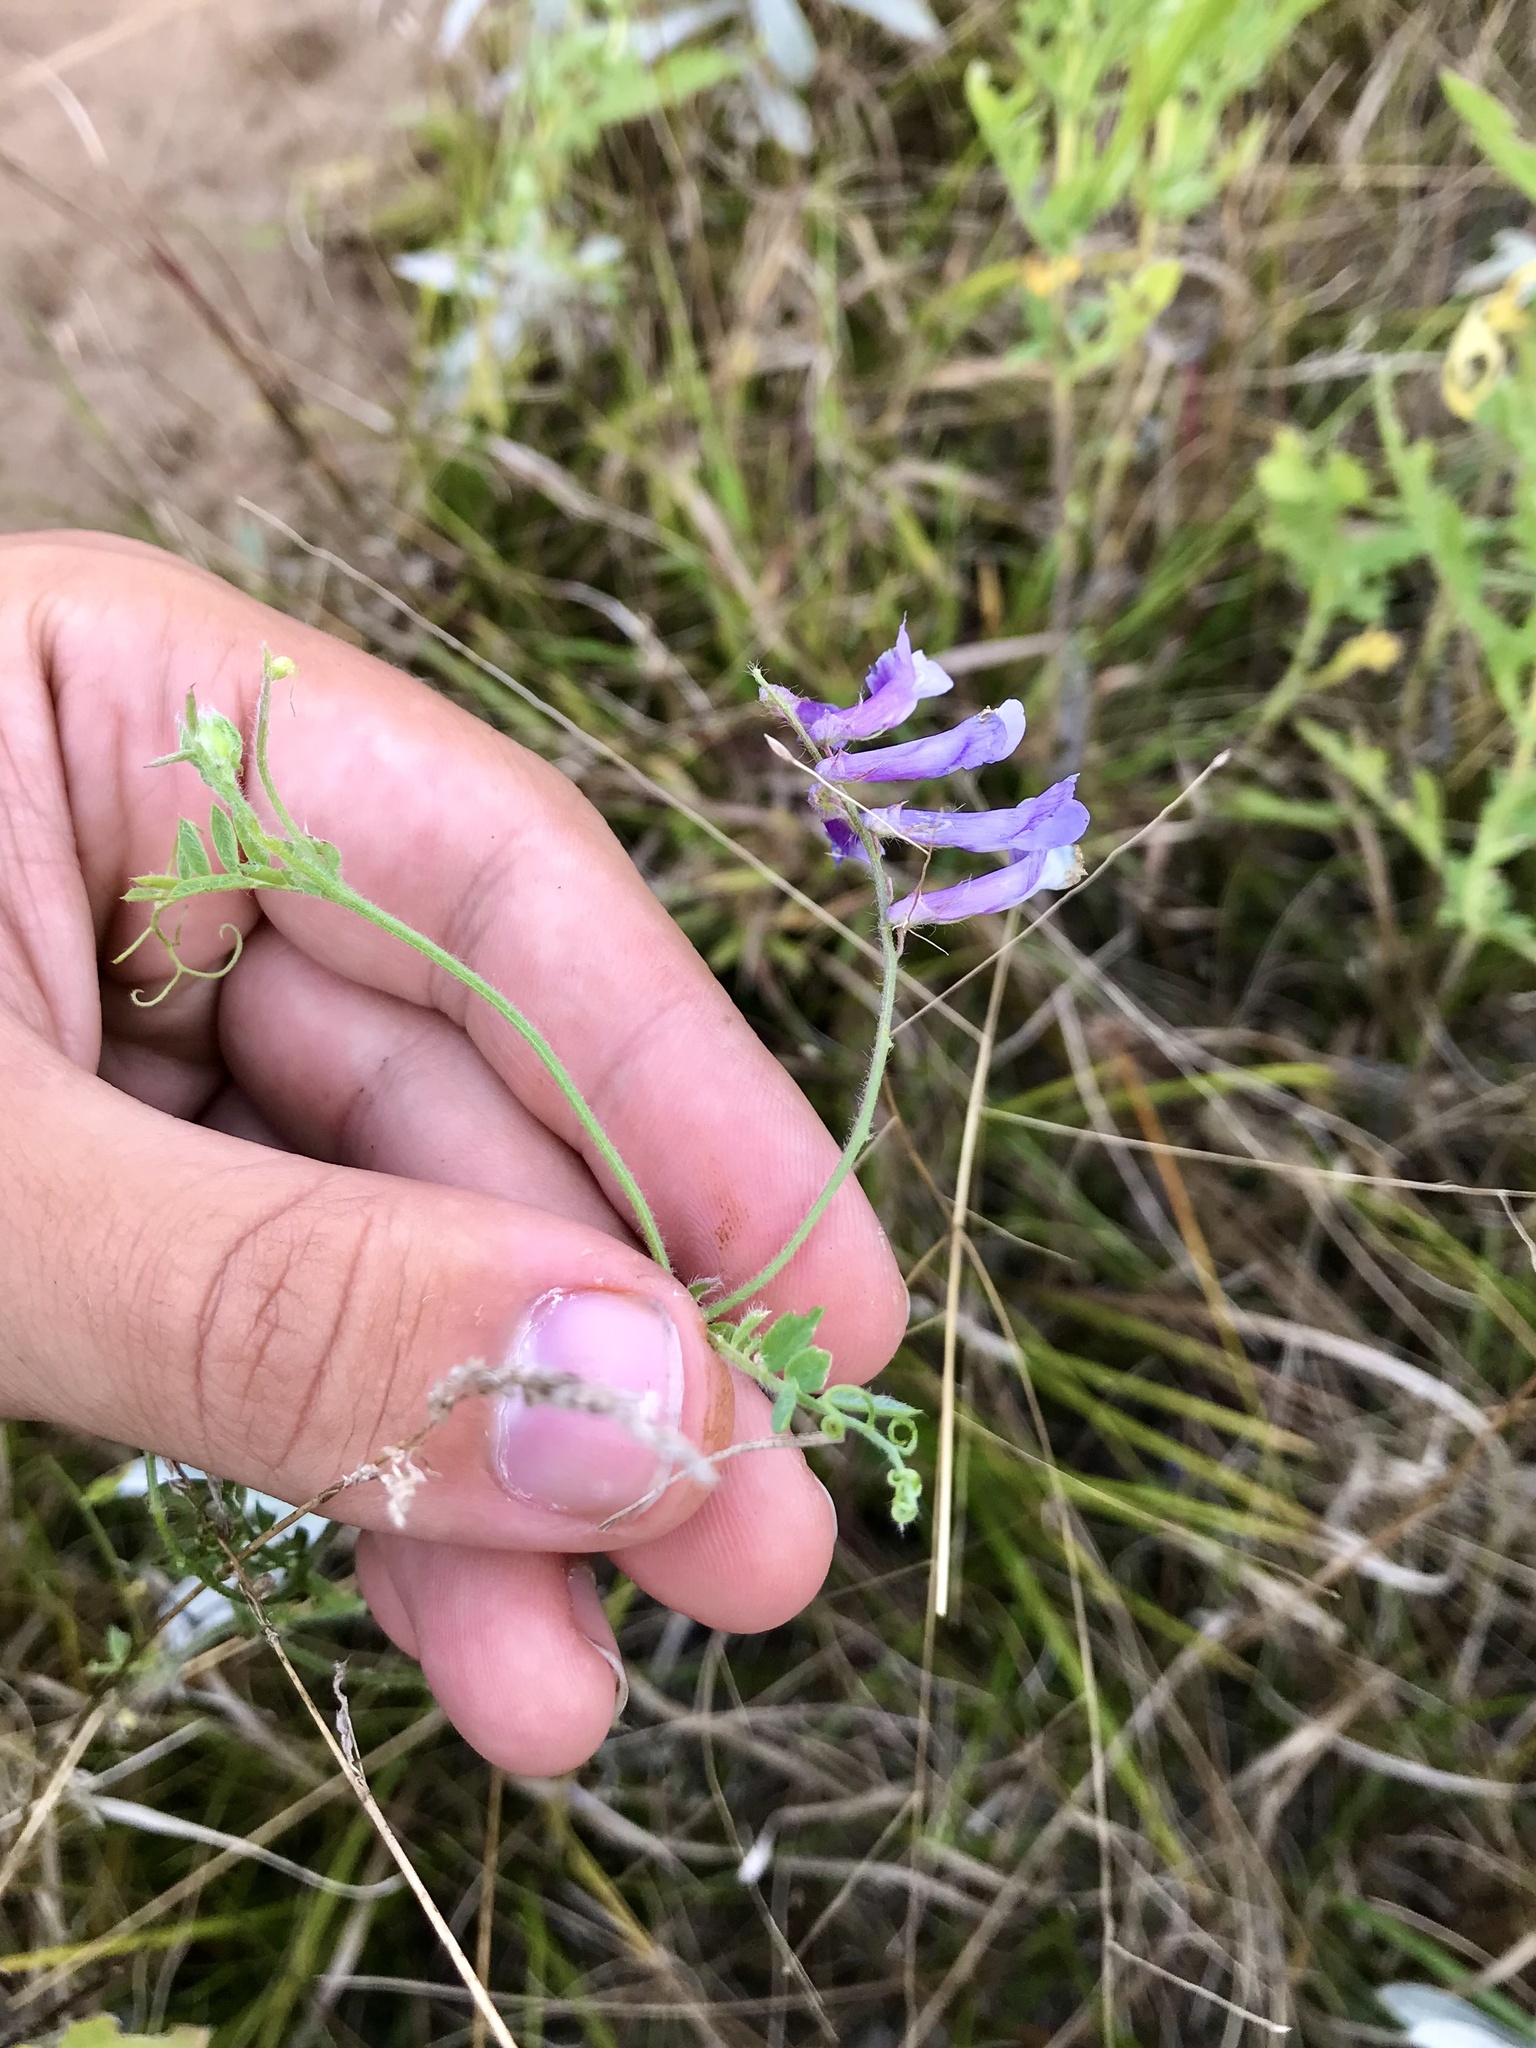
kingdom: Plantae
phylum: Tracheophyta
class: Magnoliopsida
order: Fabales
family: Fabaceae
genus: Vicia
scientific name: Vicia villosa
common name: Fodder vetch
